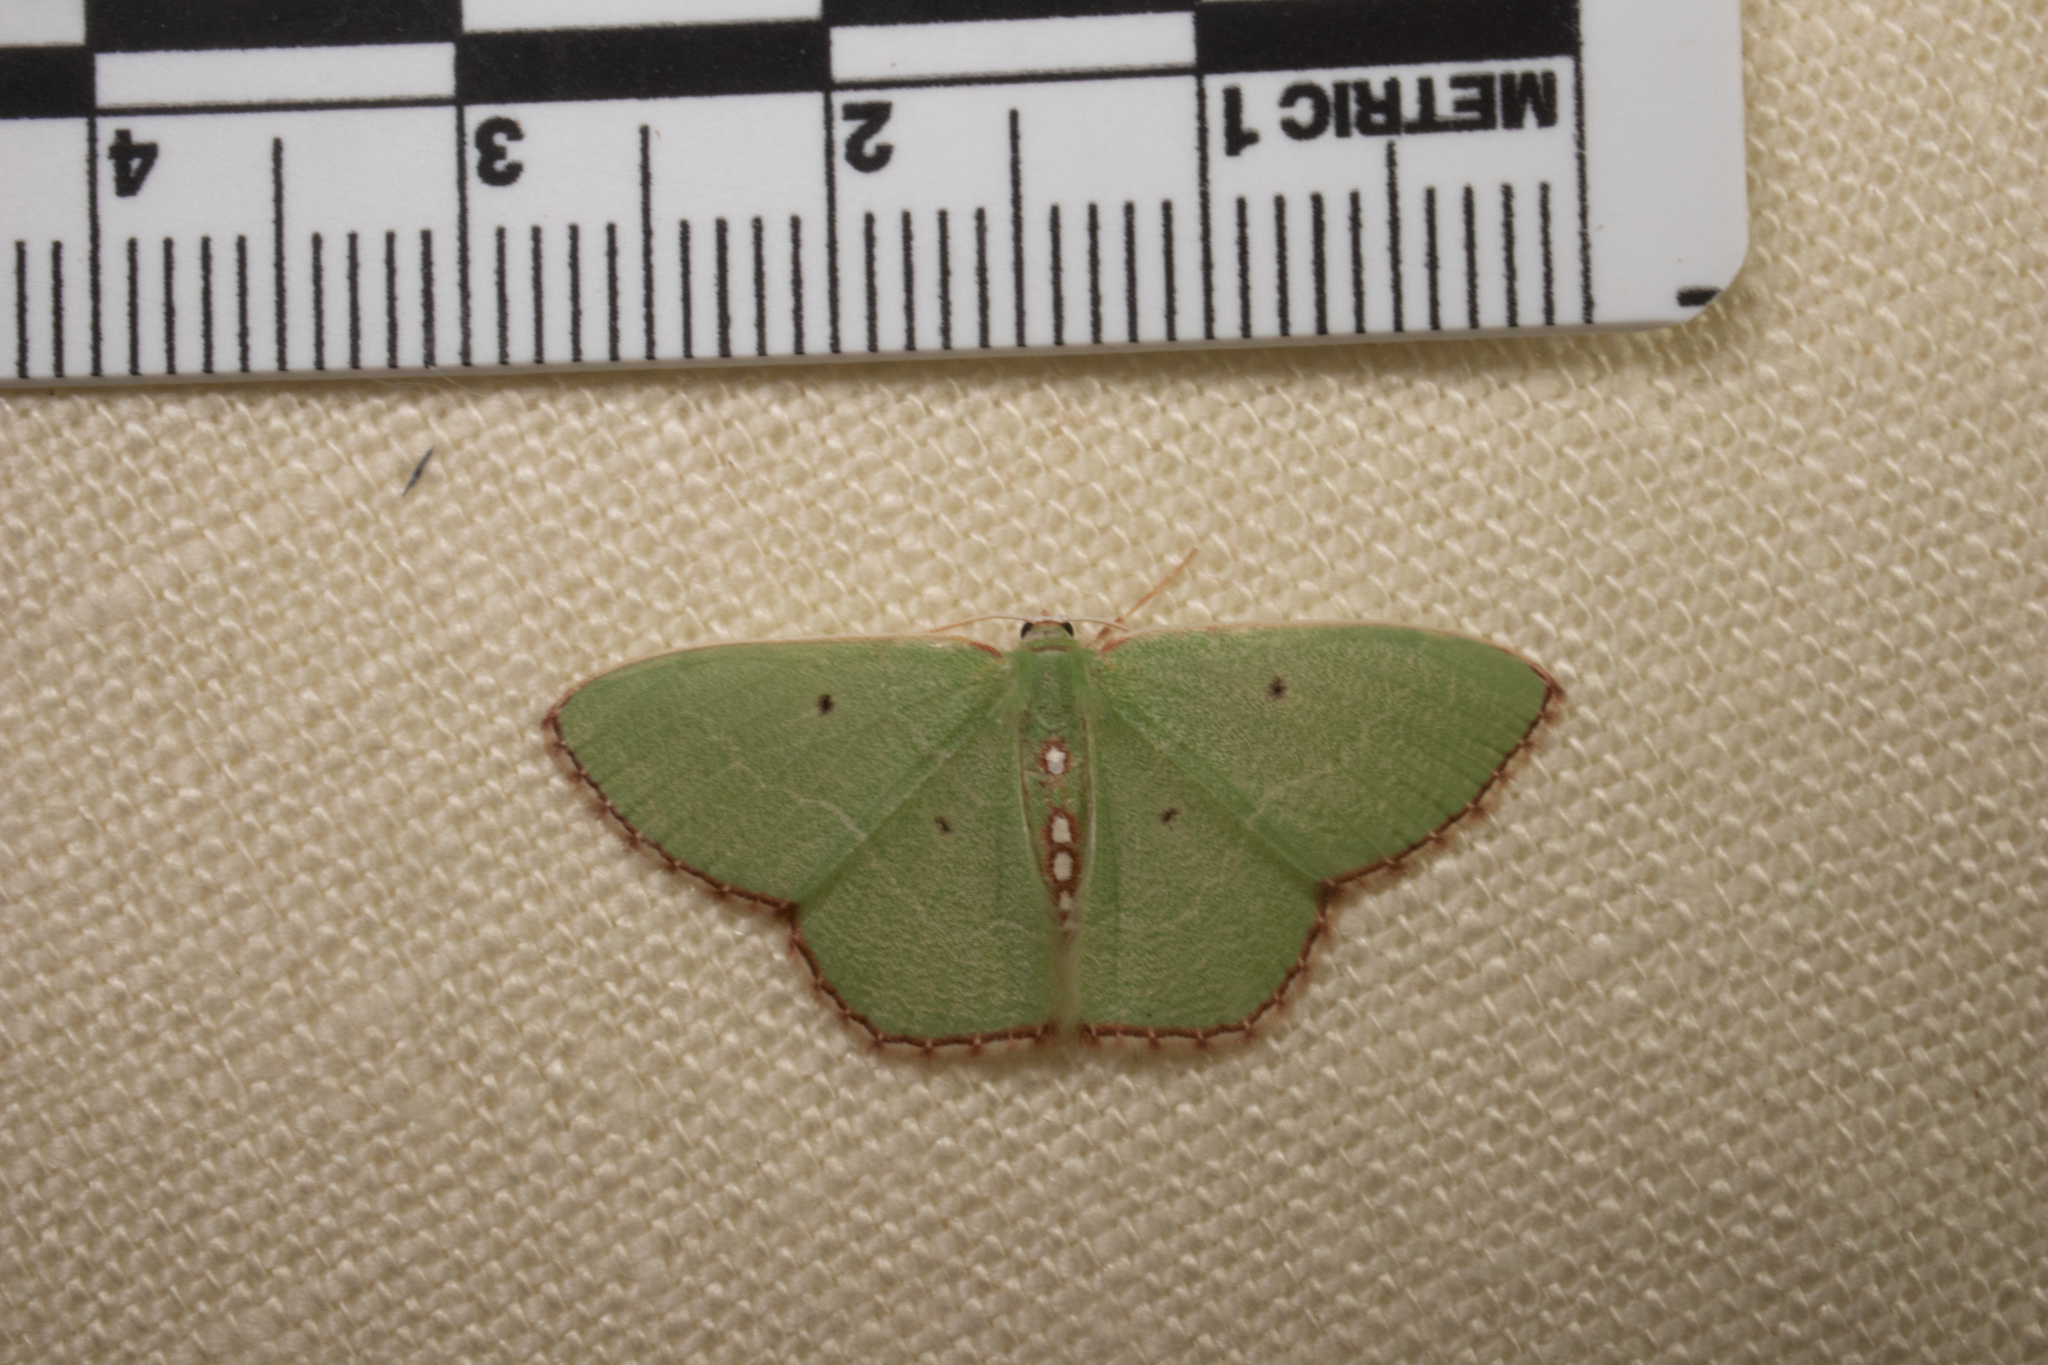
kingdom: Animalia
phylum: Arthropoda
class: Insecta
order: Lepidoptera
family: Geometridae
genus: Nemoria
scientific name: Nemoria lixaria
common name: Red-bordered emerald
